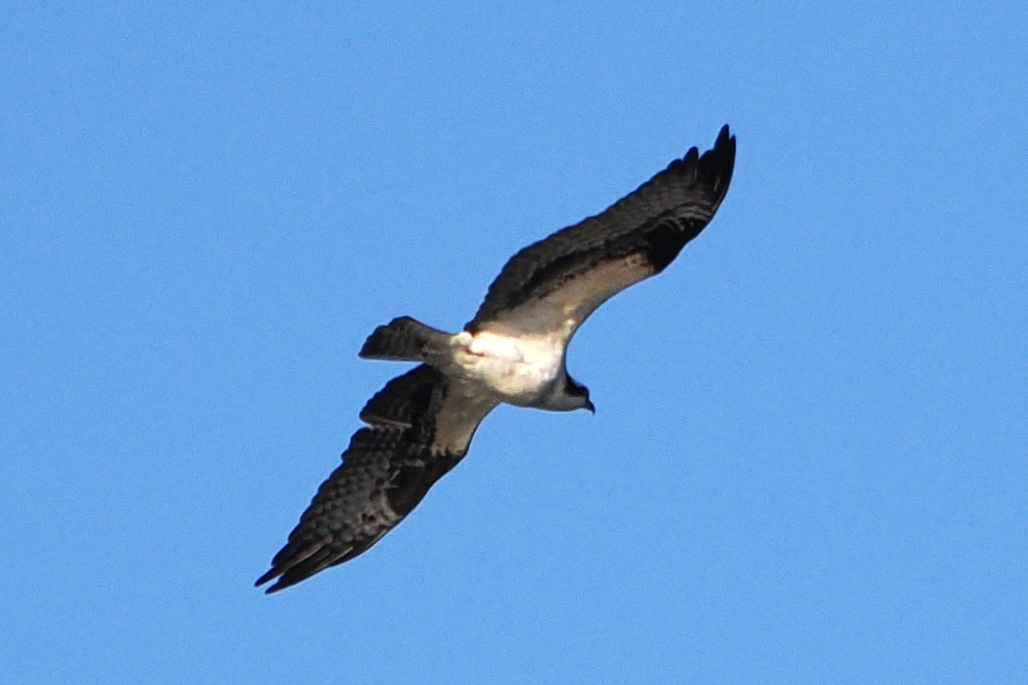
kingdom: Animalia
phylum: Chordata
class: Aves
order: Accipitriformes
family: Pandionidae
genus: Pandion
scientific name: Pandion haliaetus
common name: Osprey
